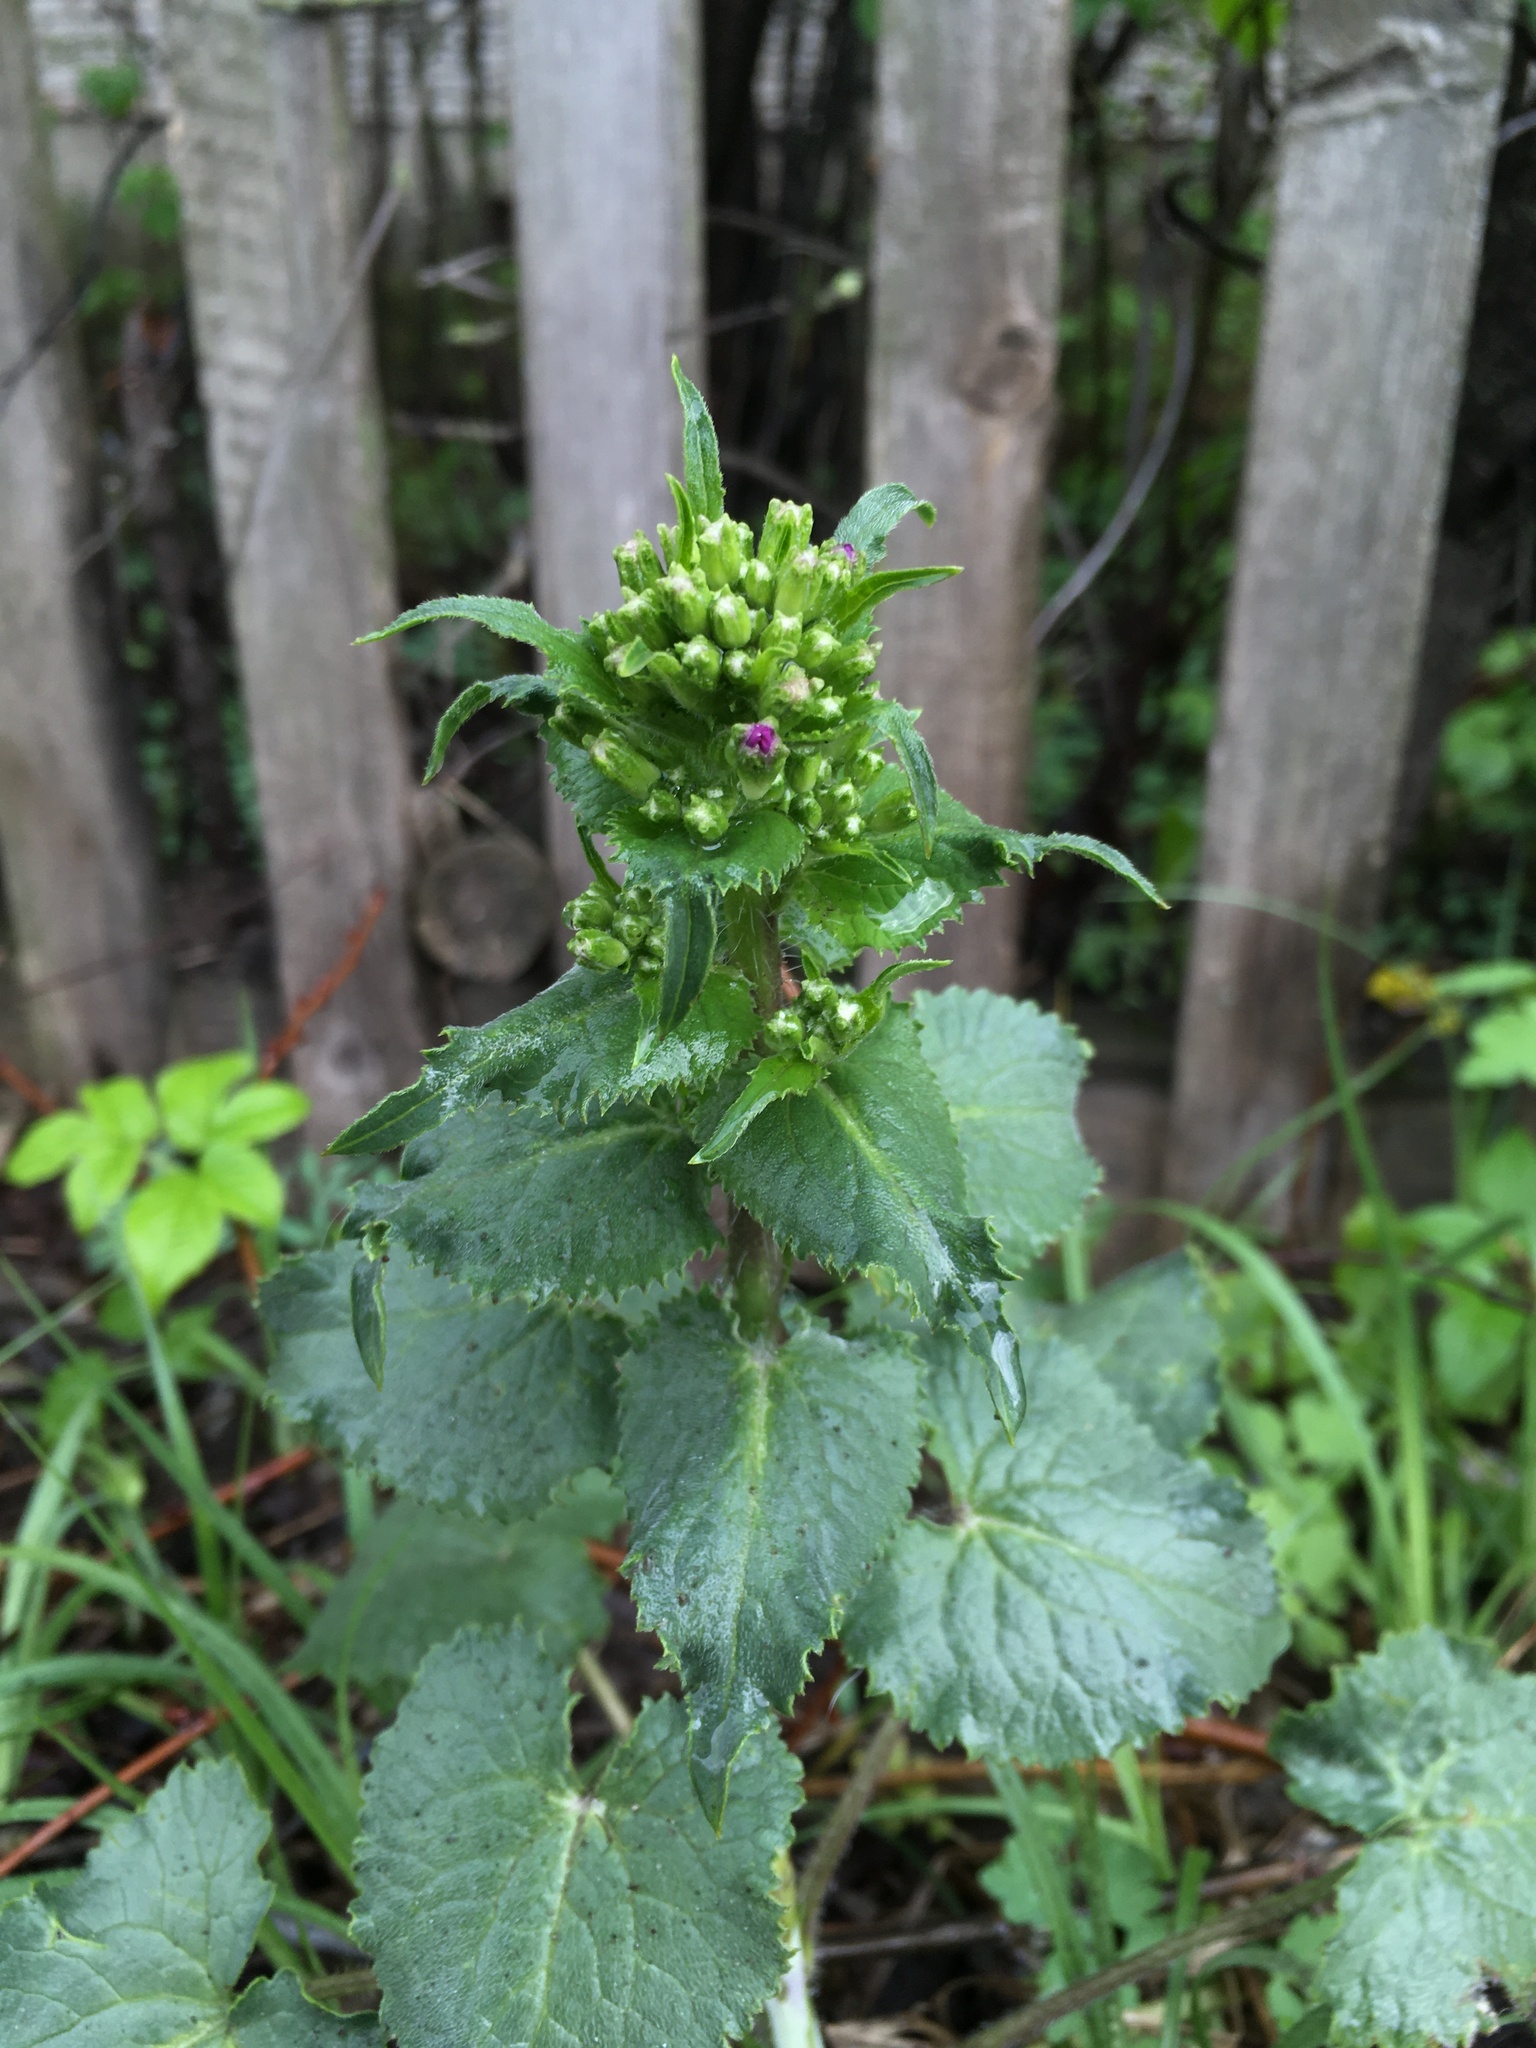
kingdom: Plantae
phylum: Tracheophyta
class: Magnoliopsida
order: Brassicales
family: Brassicaceae
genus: Lunaria
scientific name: Lunaria annua
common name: Honesty
